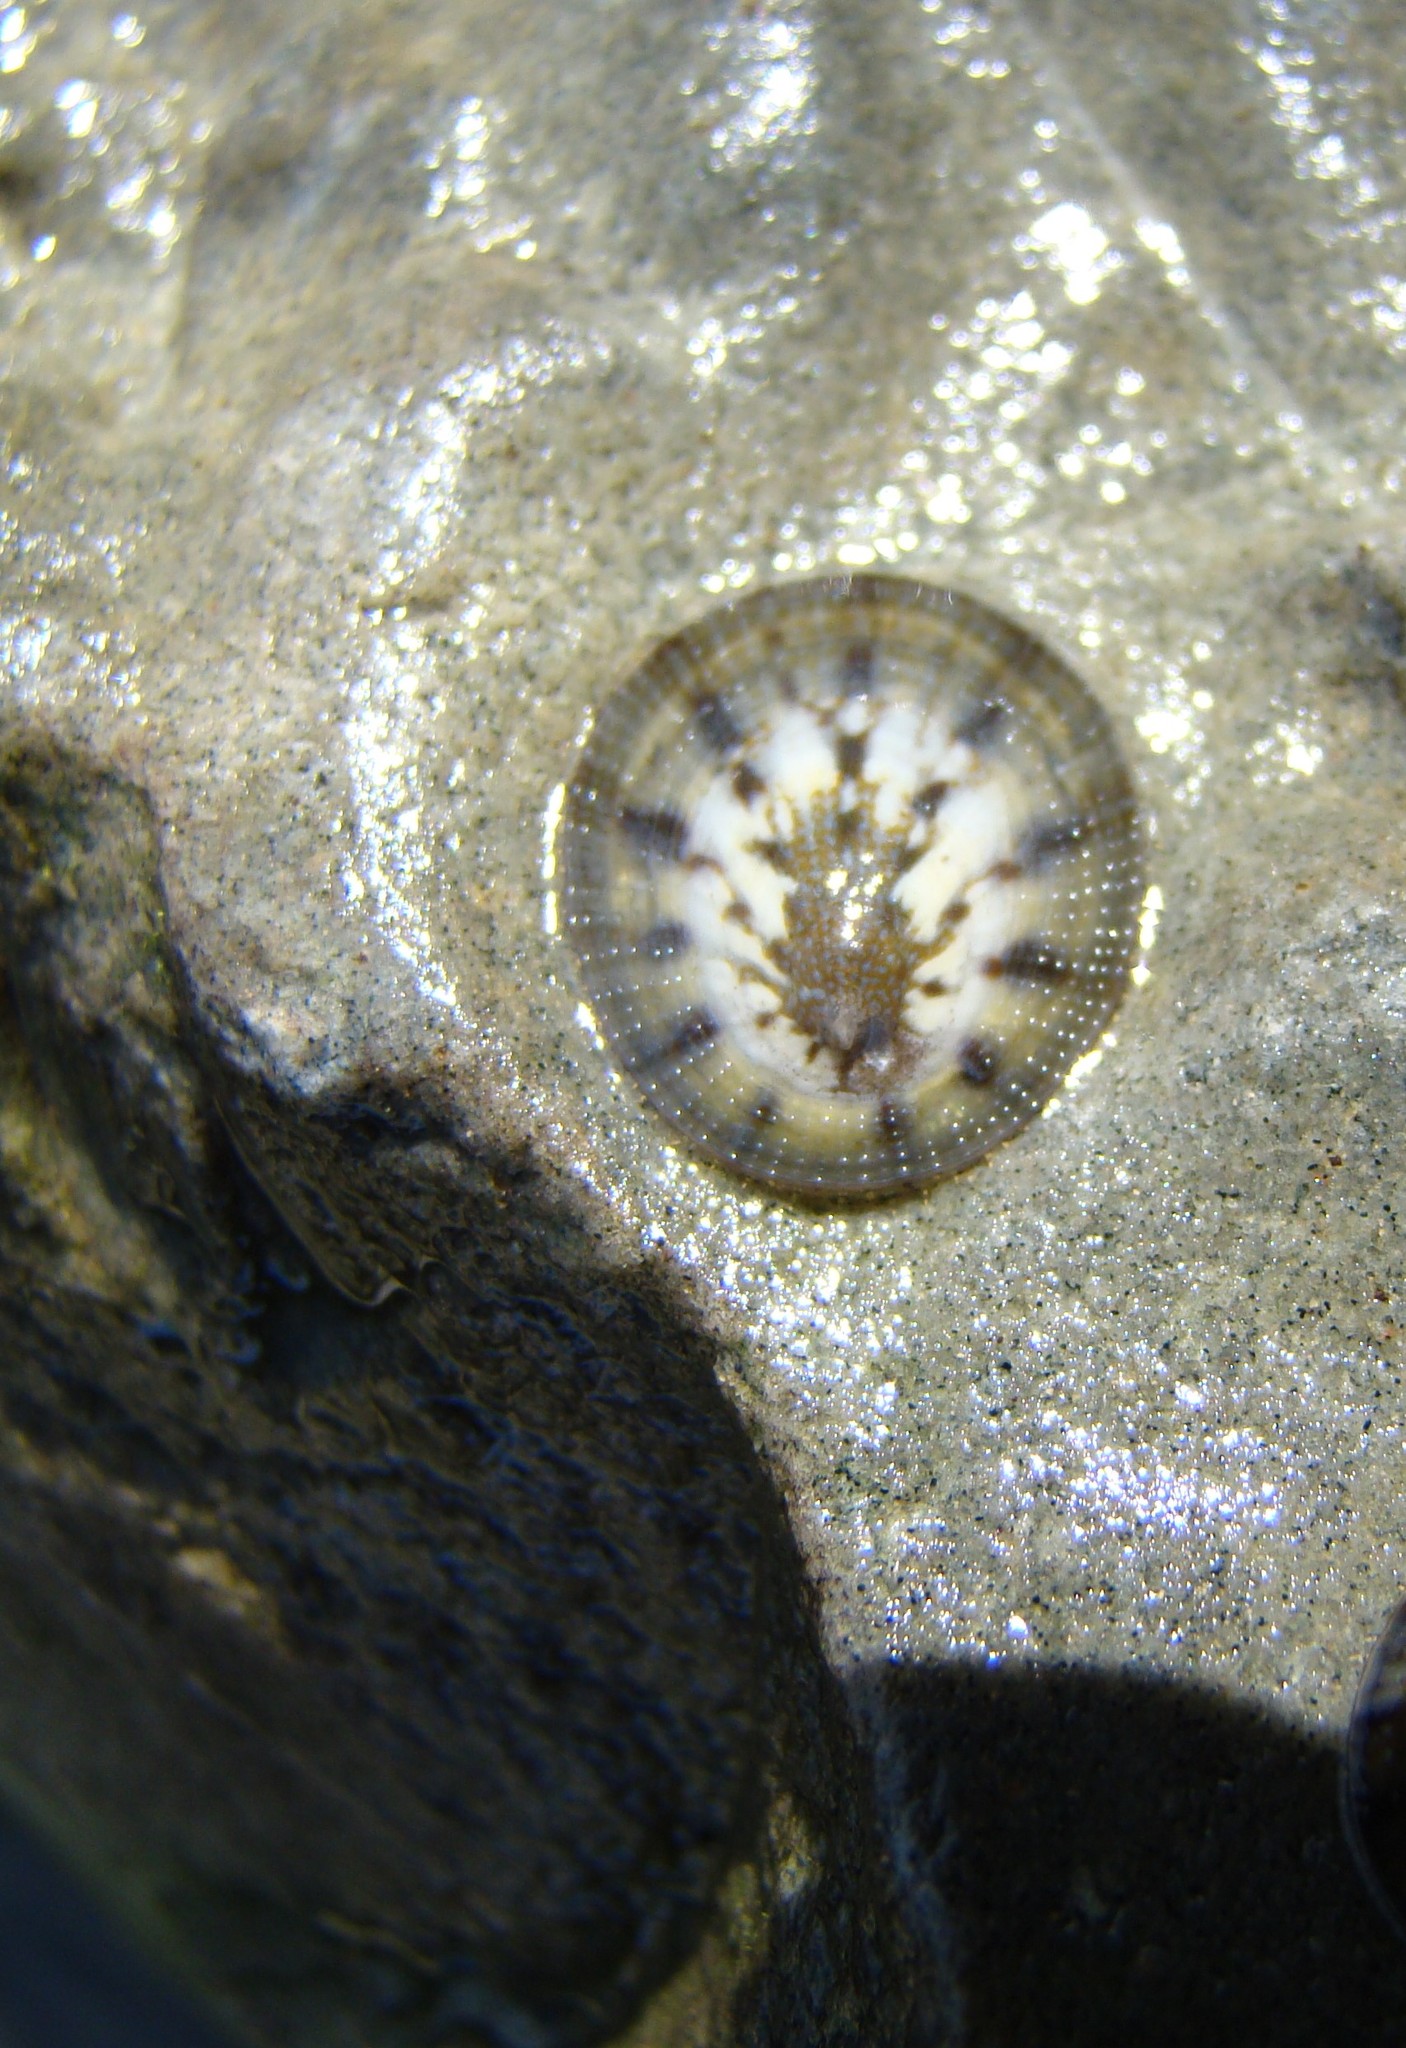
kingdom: Animalia
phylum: Mollusca
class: Gastropoda
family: Nacellidae
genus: Cellana
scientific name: Cellana radians
